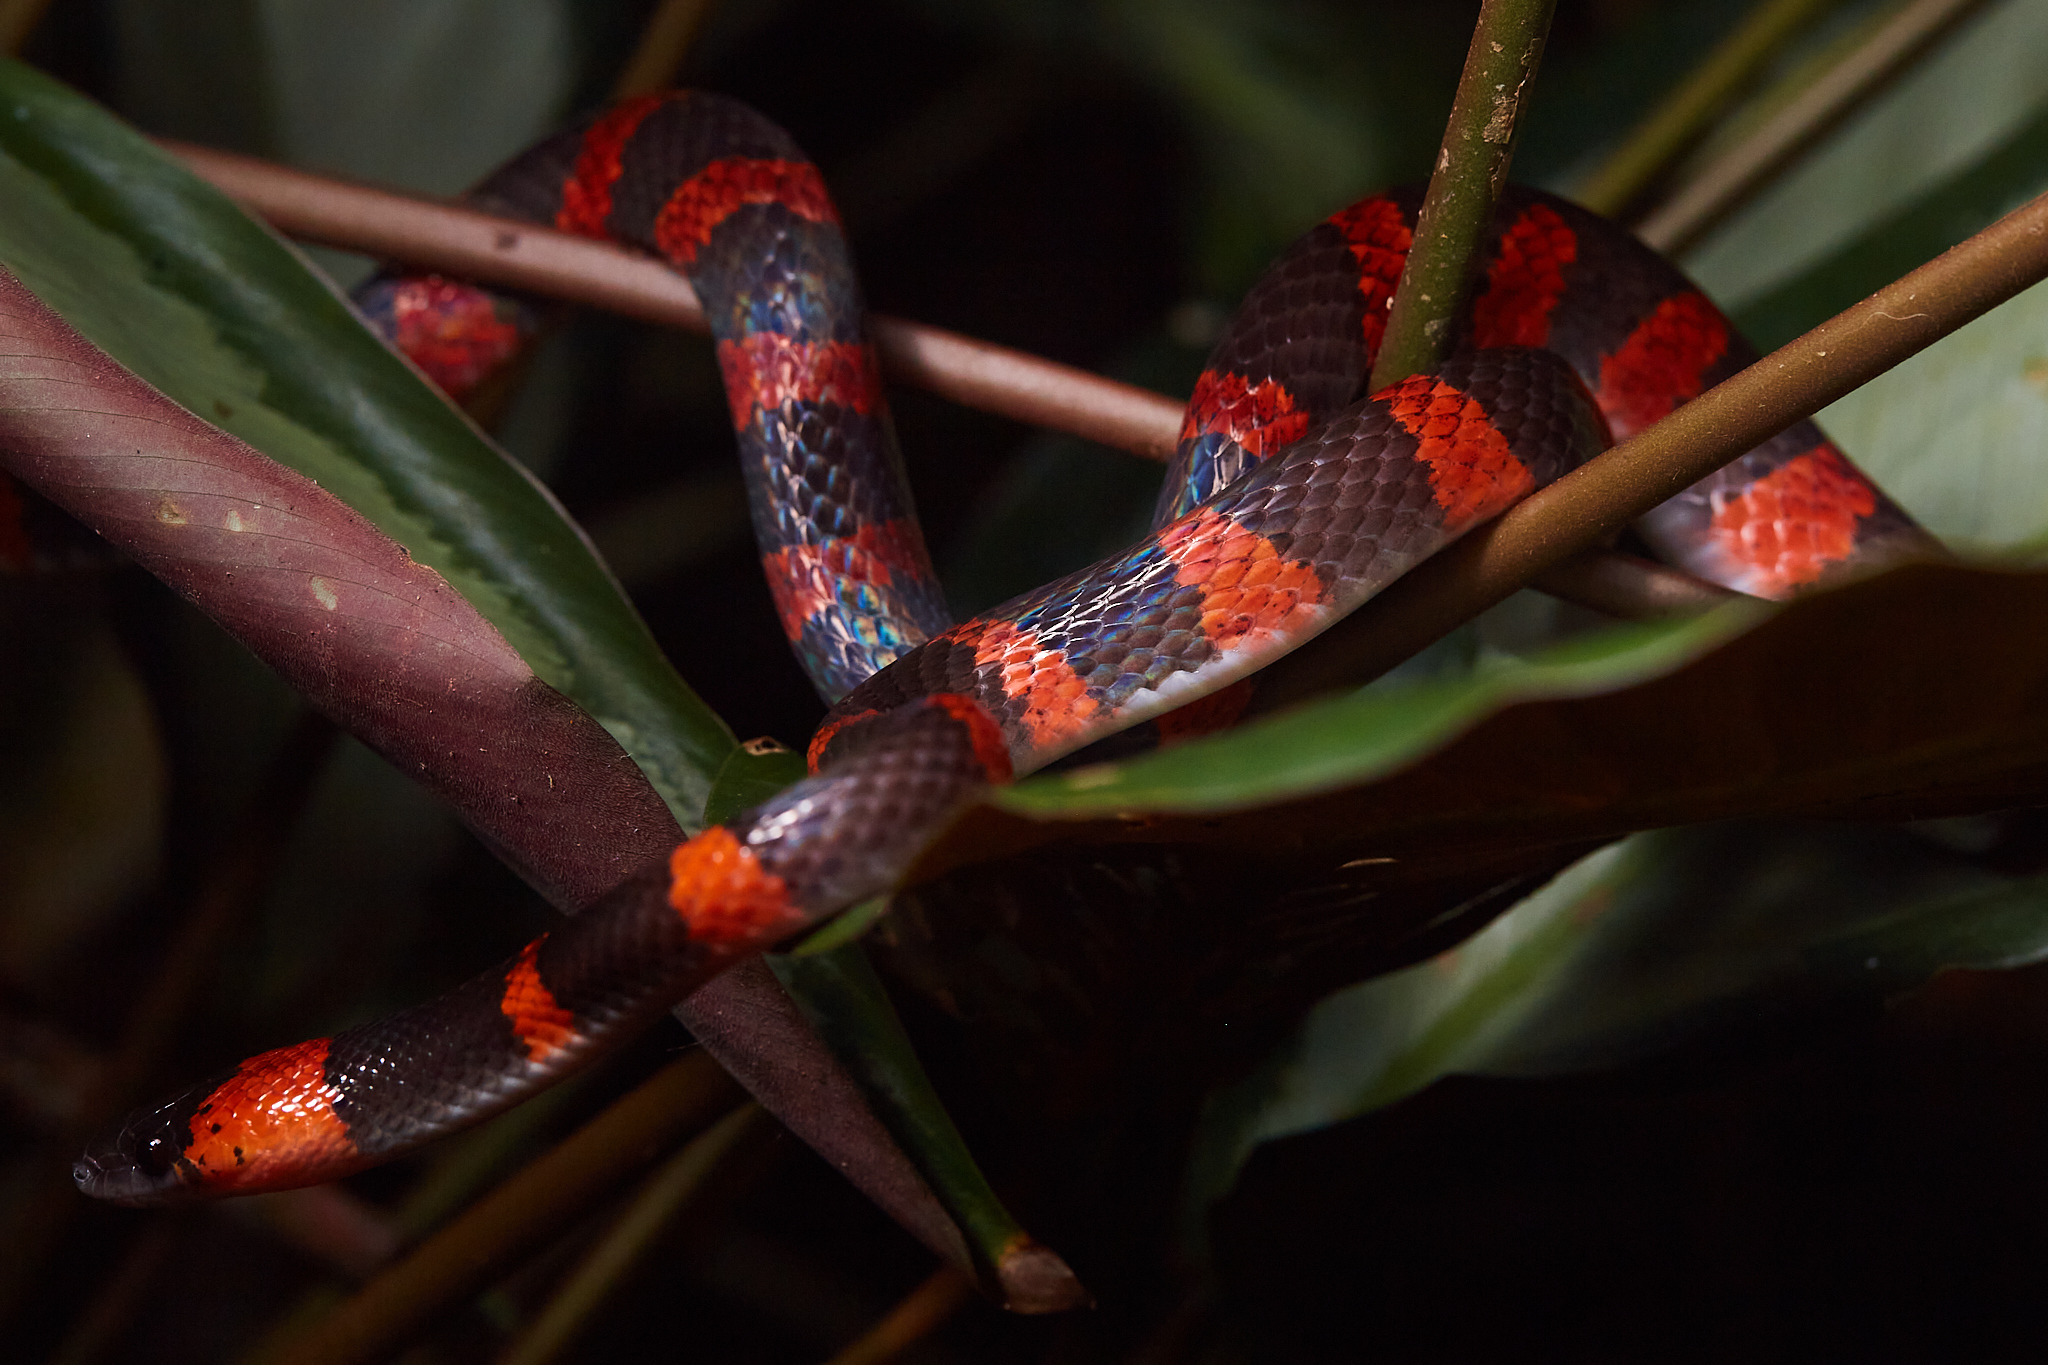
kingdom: Animalia
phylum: Chordata
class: Squamata
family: Colubridae
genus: Oxyrhopus
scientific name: Oxyrhopus petolarius
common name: Forest flame snake
